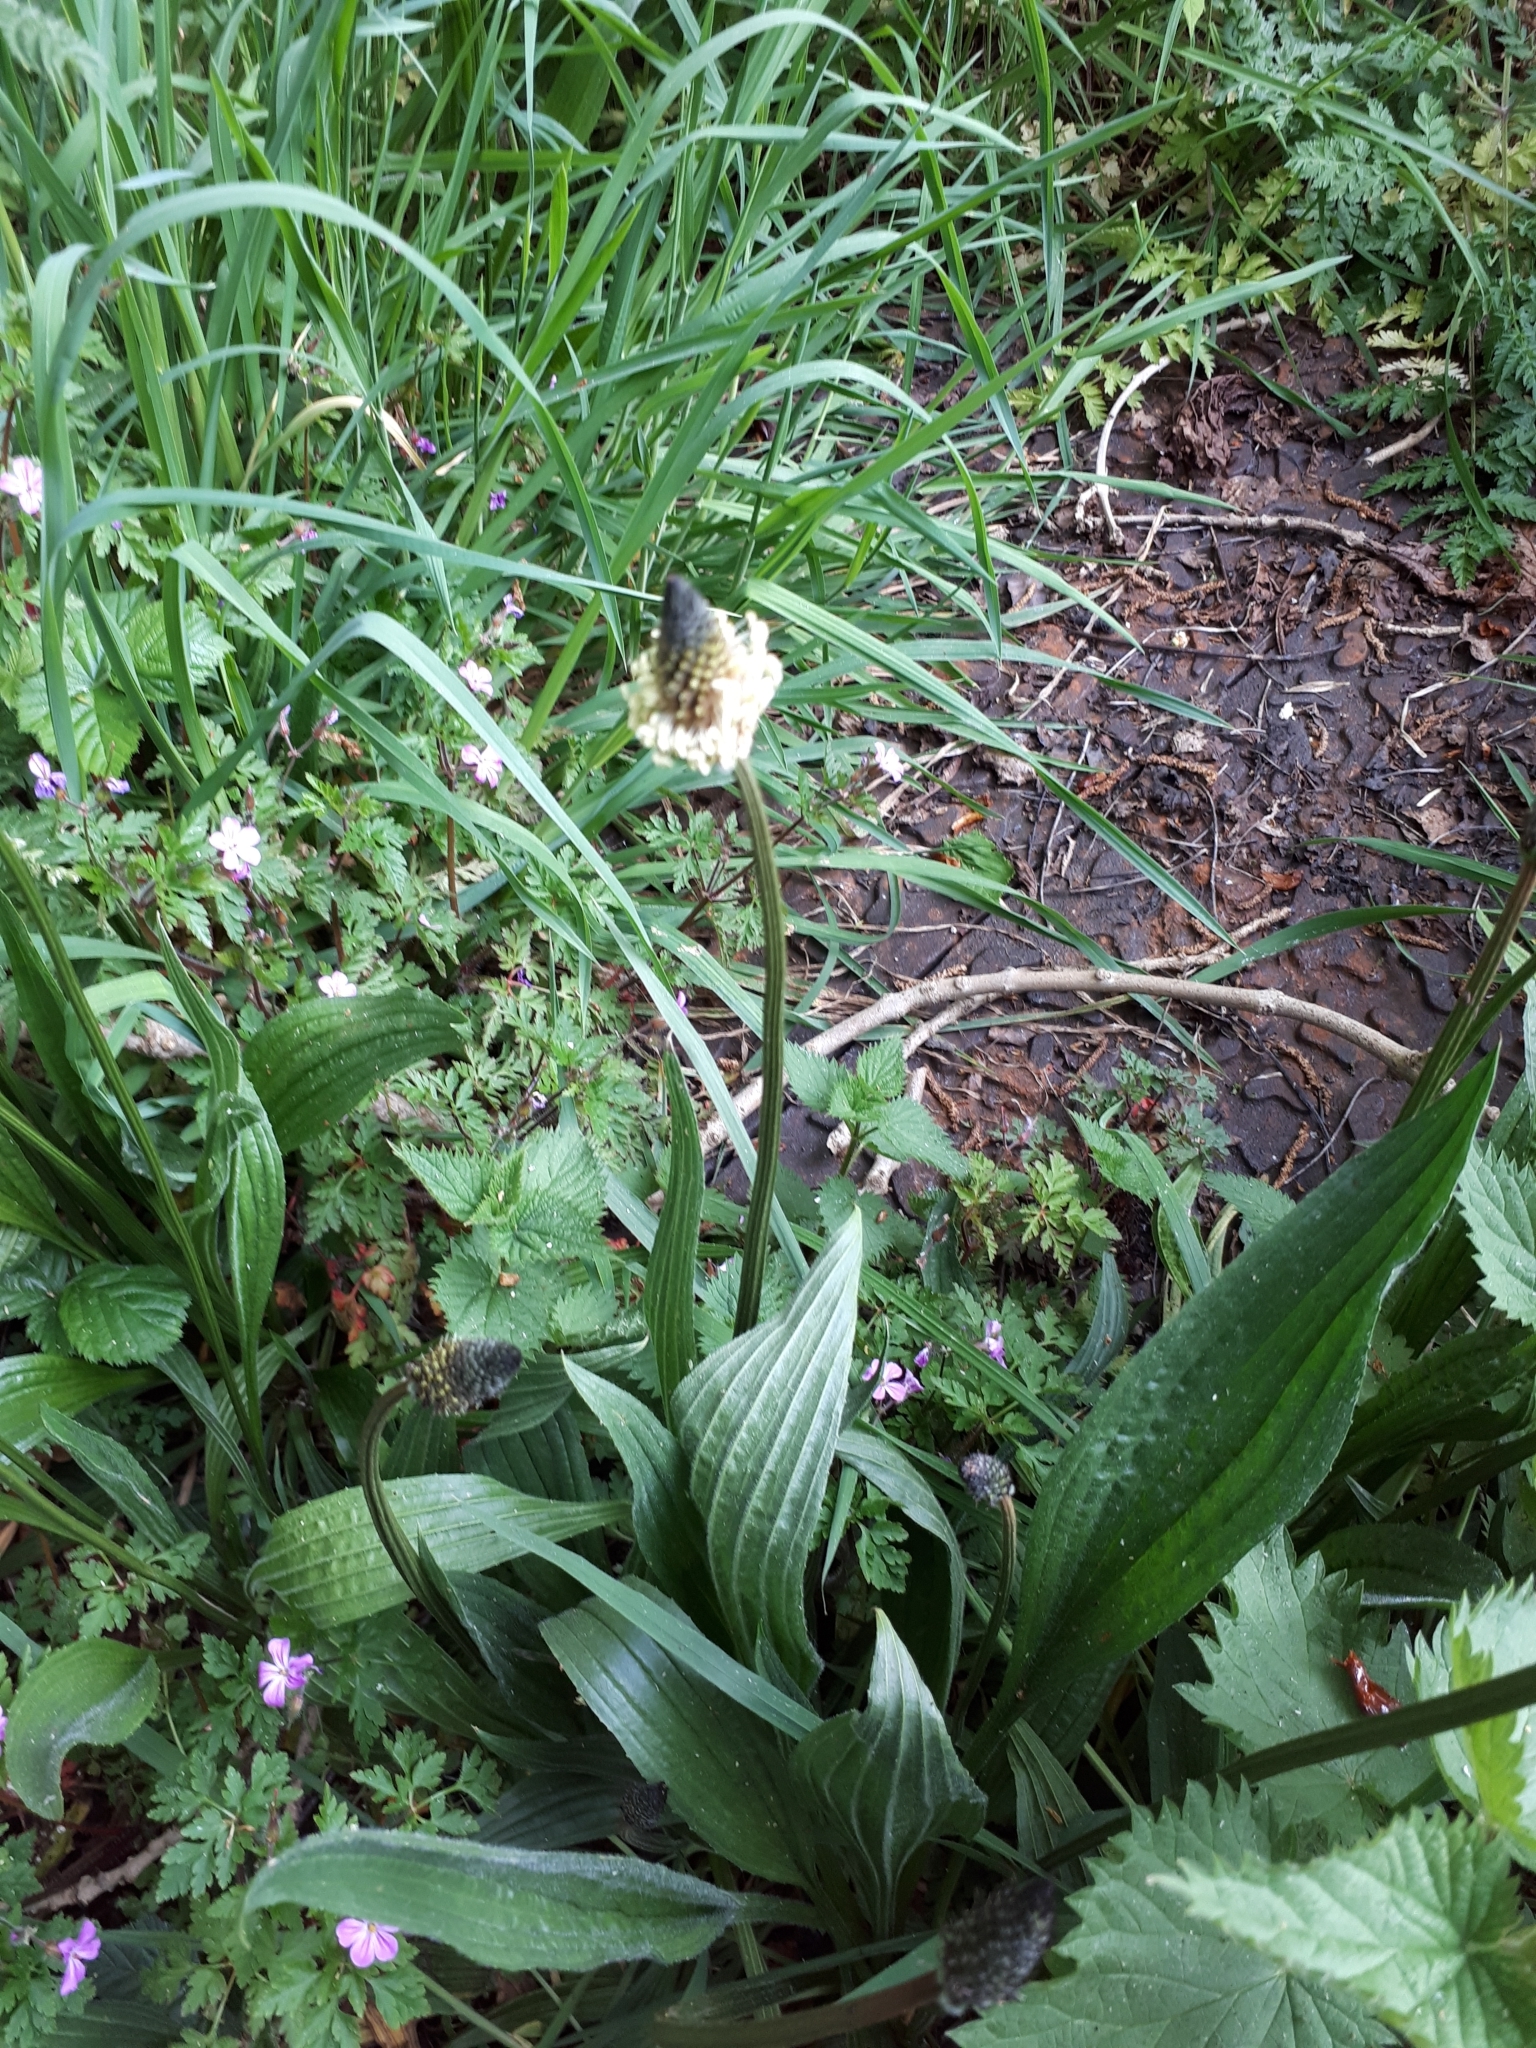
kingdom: Plantae
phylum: Tracheophyta
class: Magnoliopsida
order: Lamiales
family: Plantaginaceae
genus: Plantago
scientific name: Plantago lanceolata
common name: Ribwort plantain
